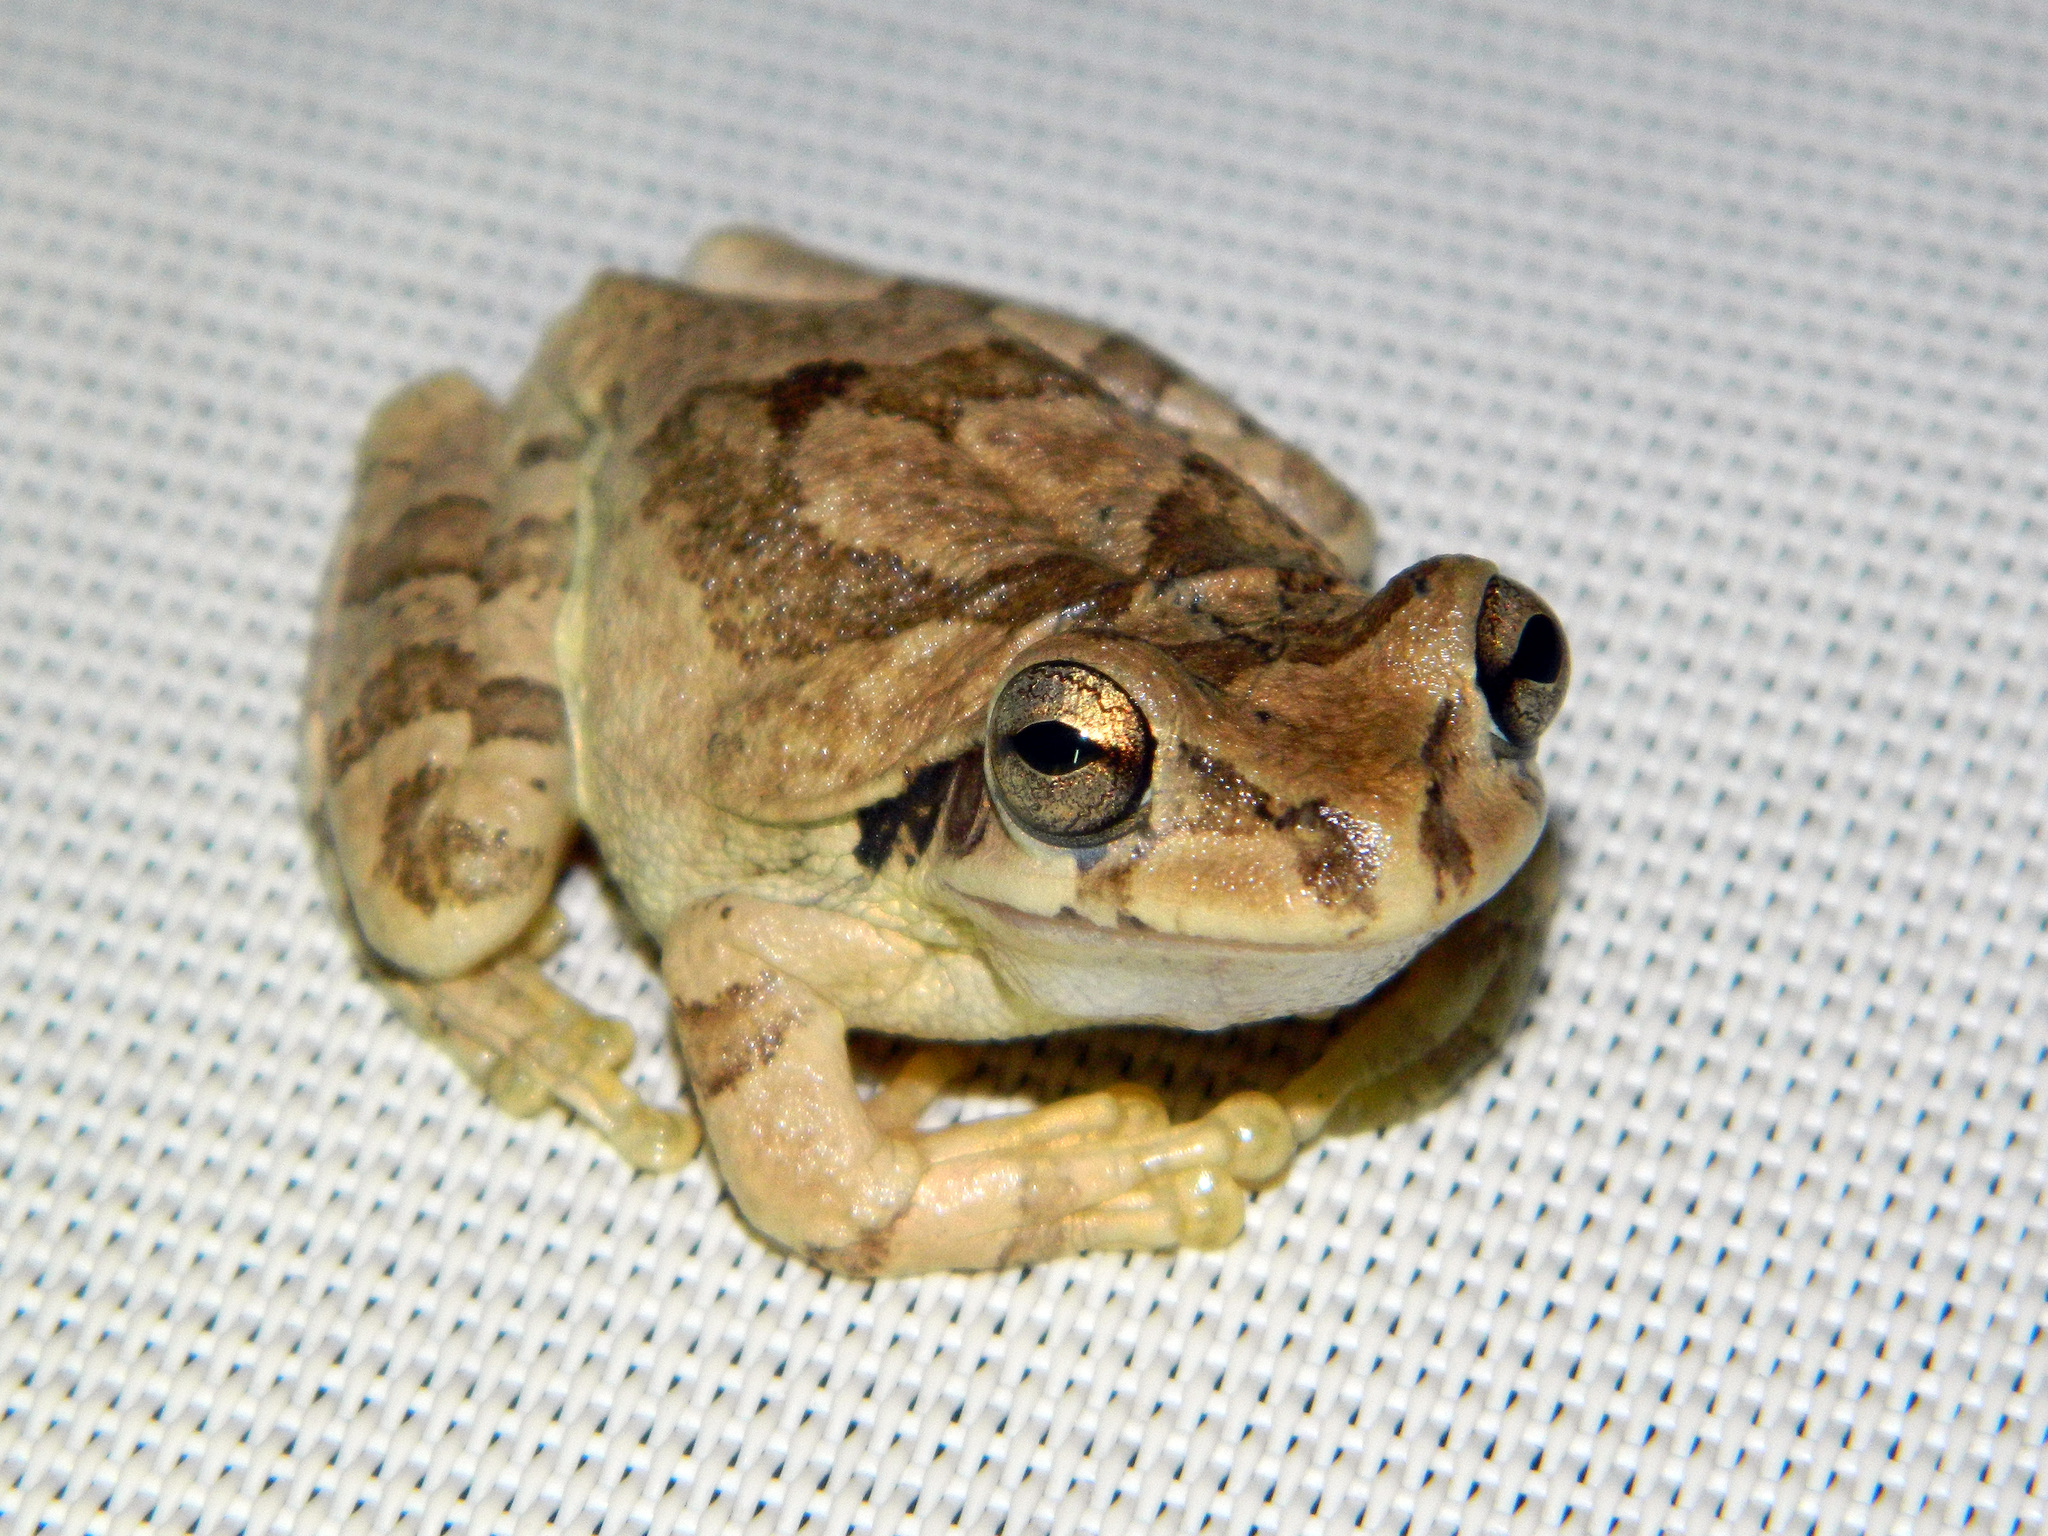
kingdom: Animalia
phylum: Chordata
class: Amphibia
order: Anura
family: Hylidae
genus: Smilisca
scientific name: Smilisca baudinii
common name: Mexican smilisca
